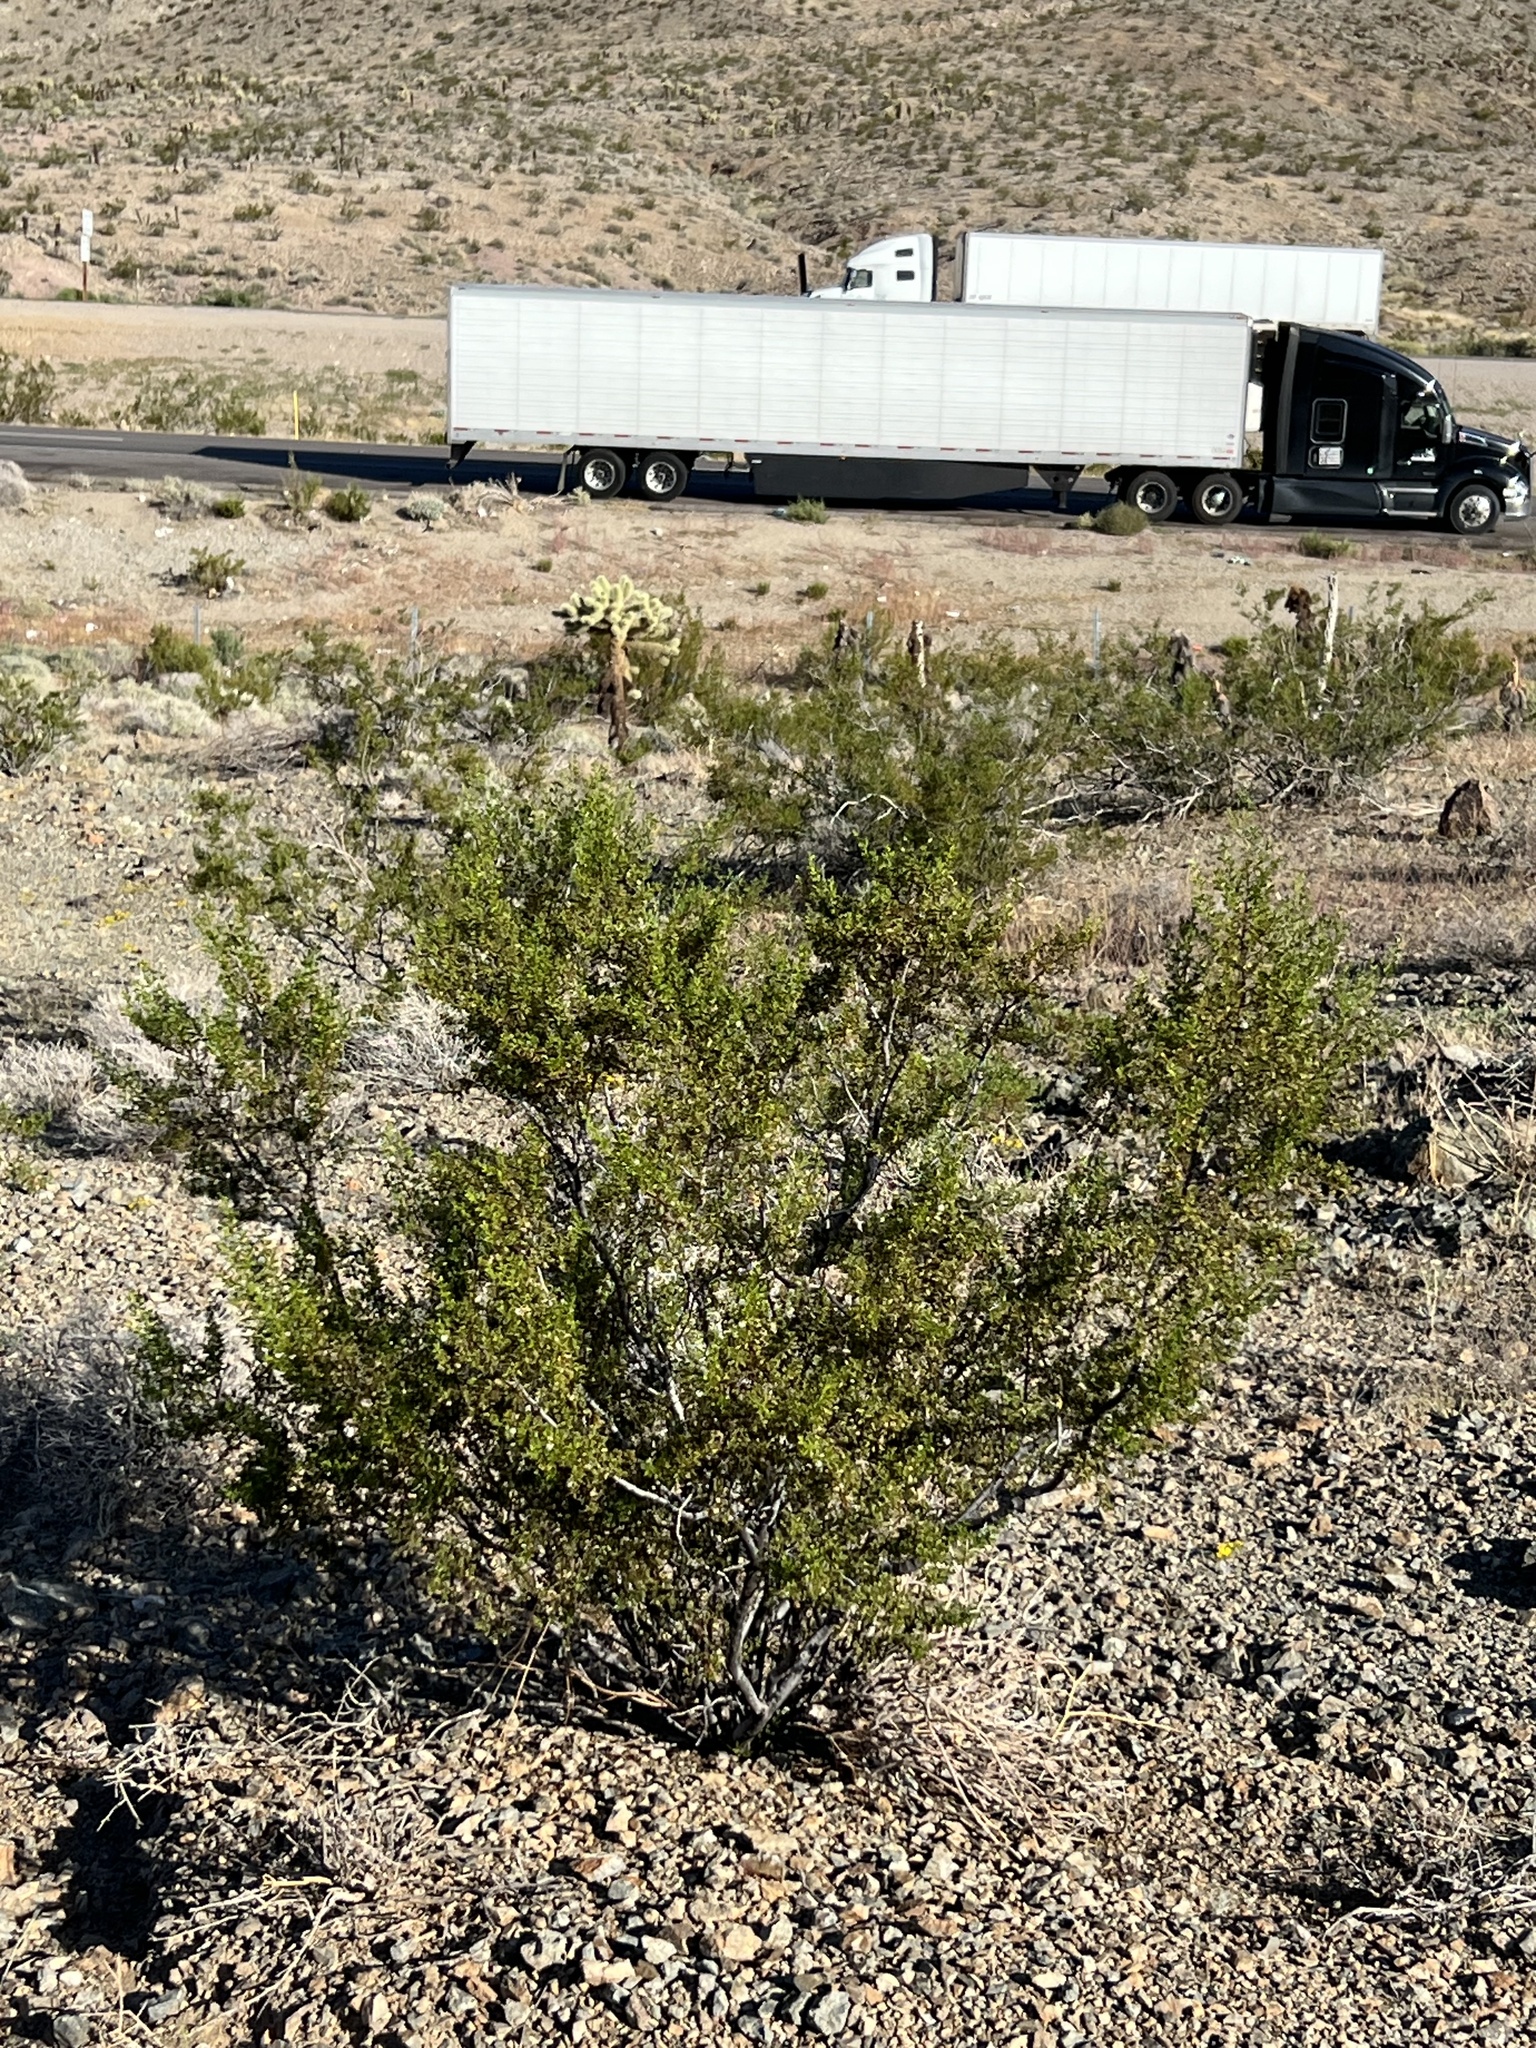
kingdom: Plantae
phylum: Tracheophyta
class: Magnoliopsida
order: Zygophyllales
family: Zygophyllaceae
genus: Larrea
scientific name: Larrea tridentata
